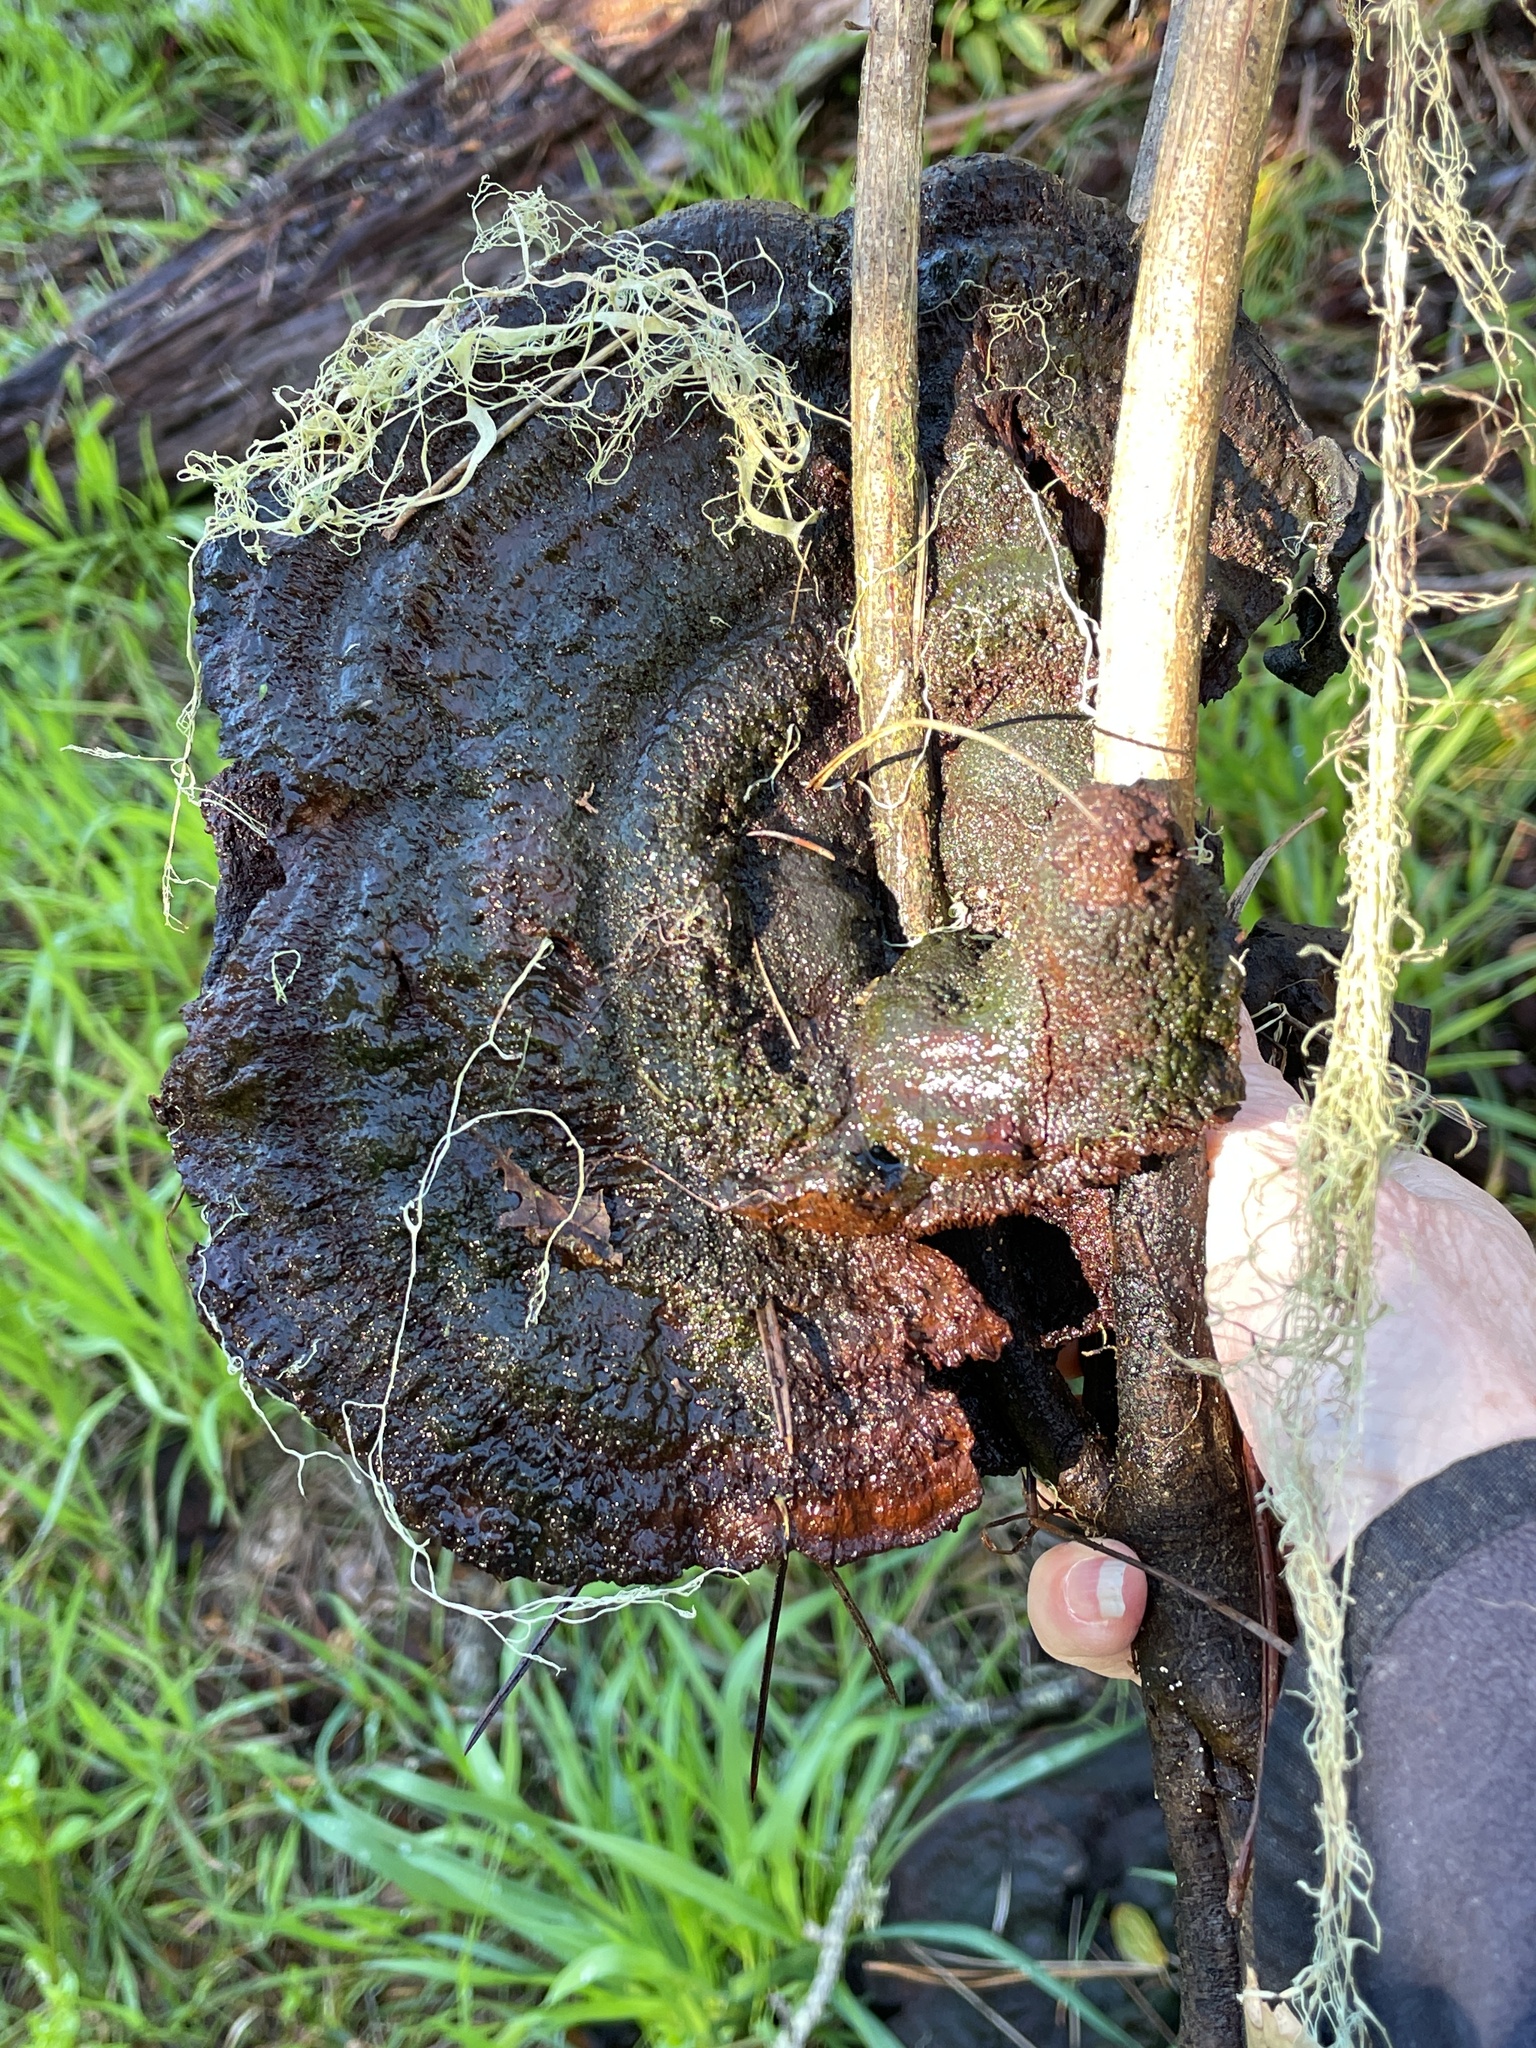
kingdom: Fungi
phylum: Basidiomycota
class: Agaricomycetes
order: Polyporales
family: Laetiporaceae
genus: Phaeolus
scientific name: Phaeolus schweinitzii
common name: Dyer's mazegill
